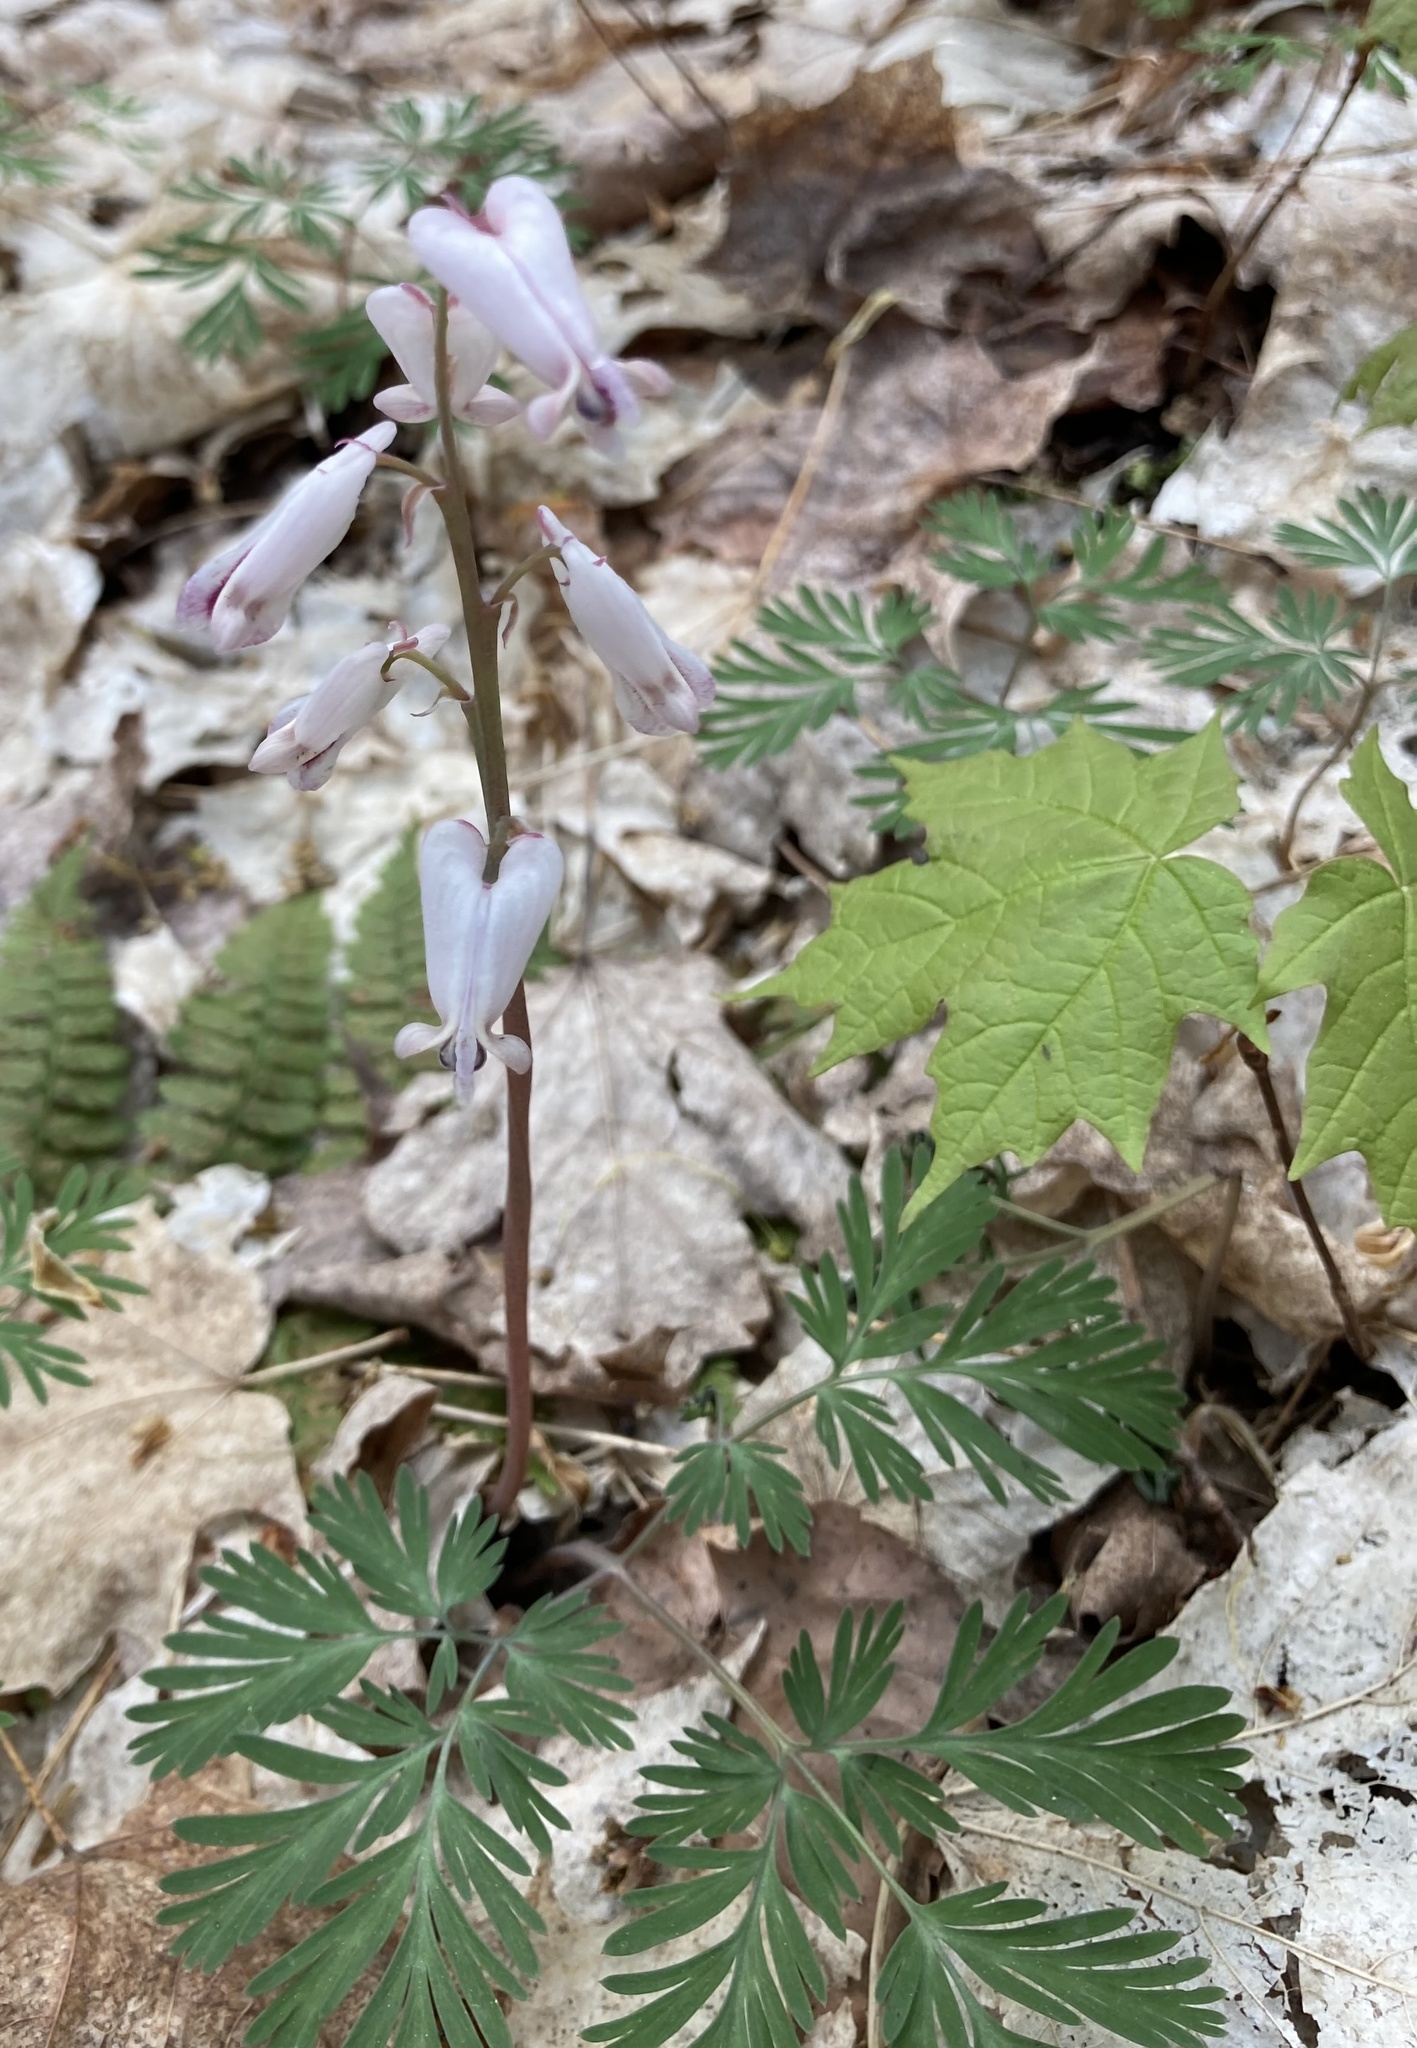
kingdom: Plantae
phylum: Tracheophyta
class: Magnoliopsida
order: Ranunculales
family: Papaveraceae
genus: Dicentra
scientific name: Dicentra canadensis
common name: Squirrel-corn
